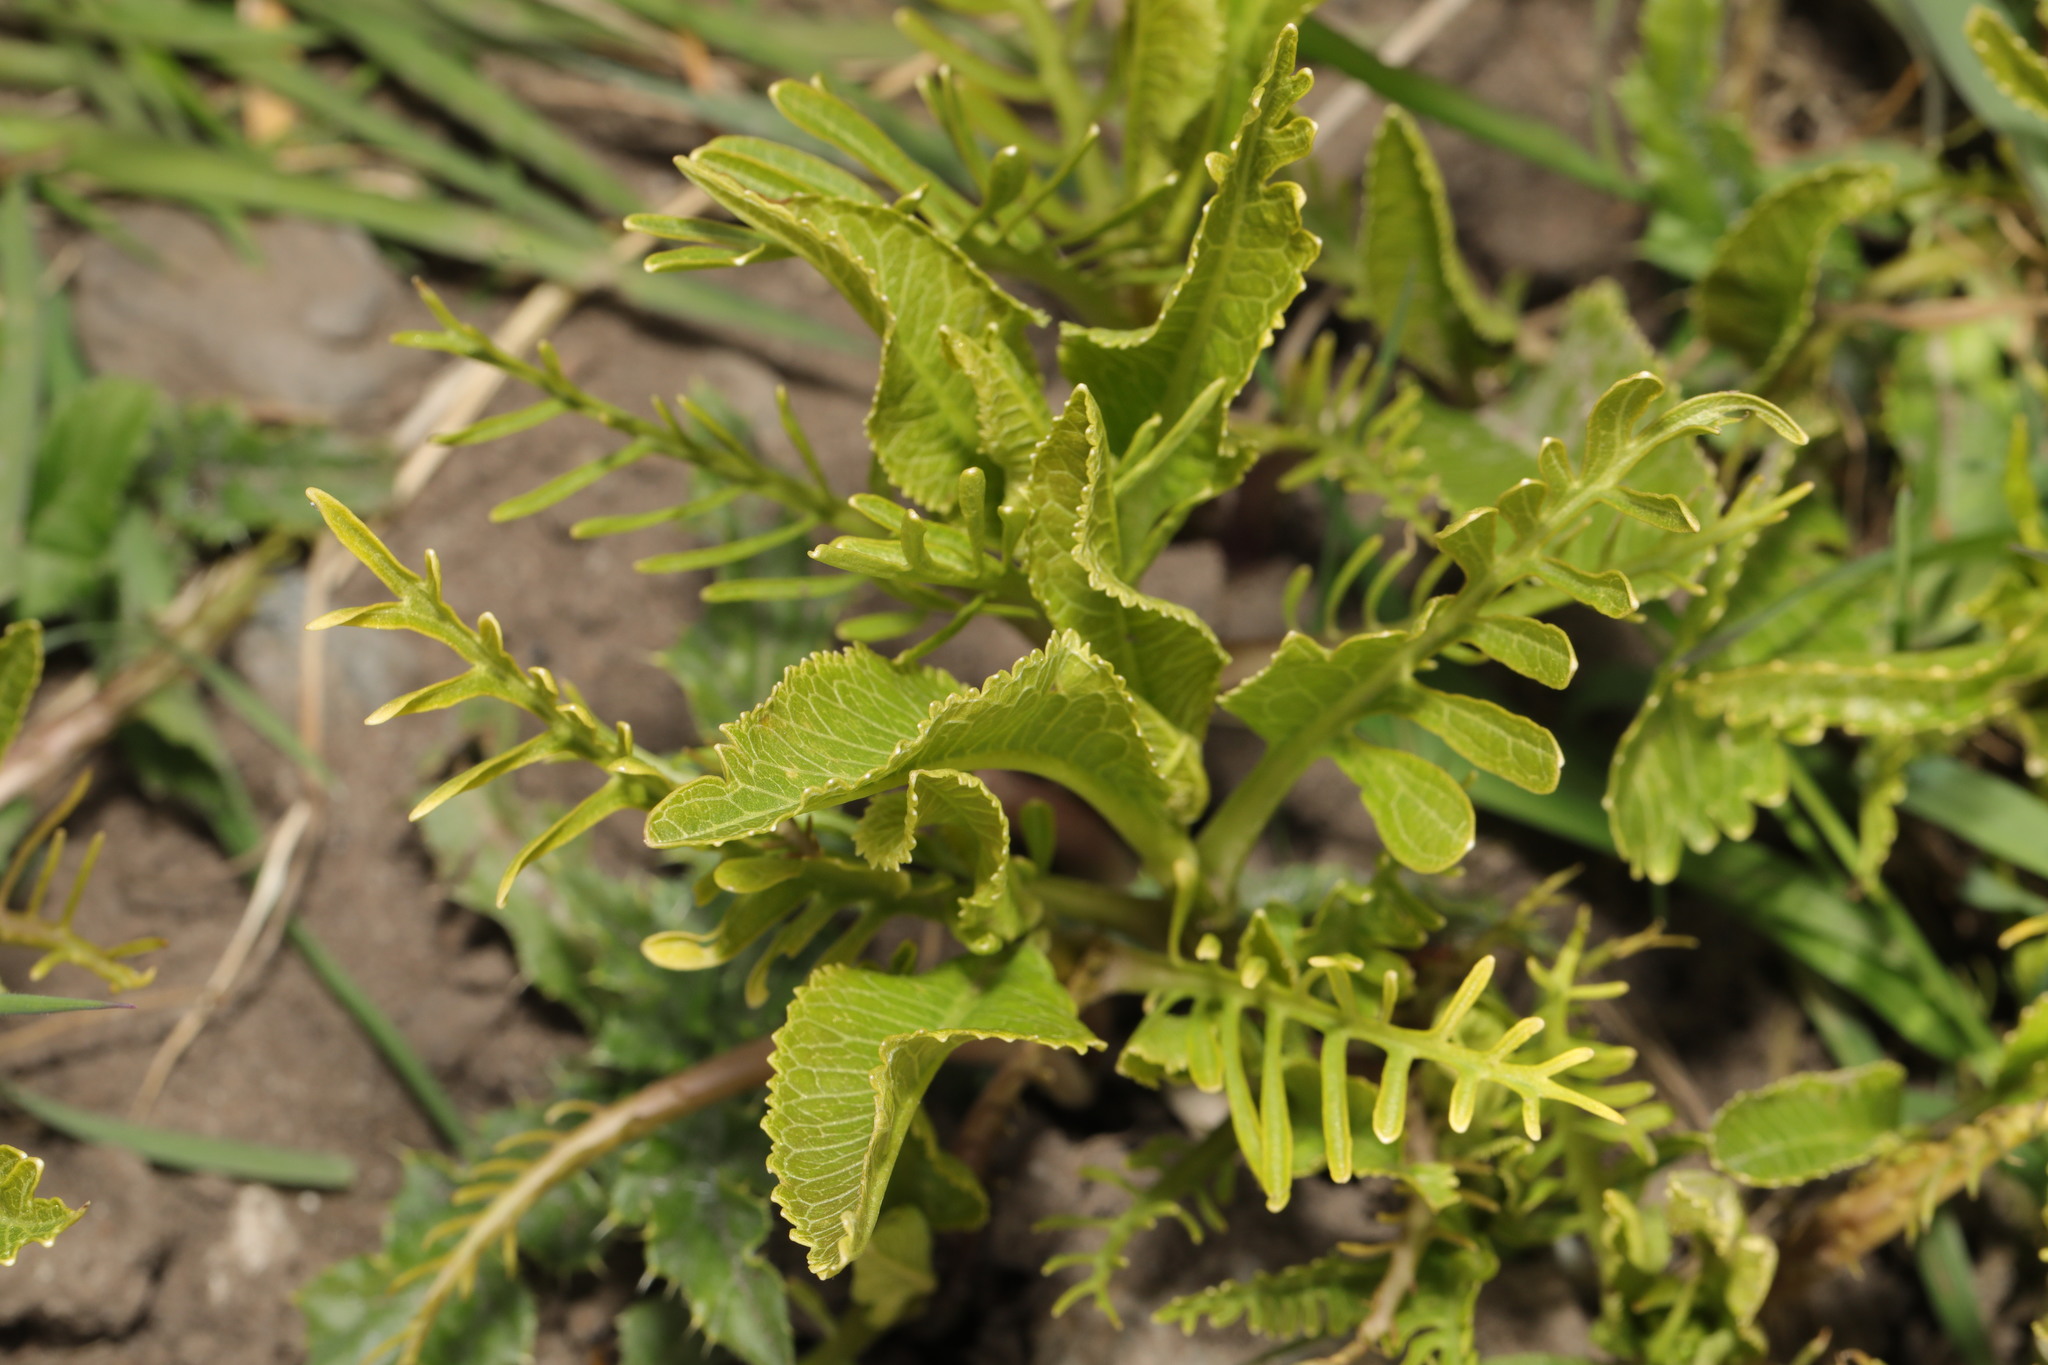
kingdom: Plantae
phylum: Tracheophyta
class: Magnoliopsida
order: Brassicales
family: Brassicaceae
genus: Armoracia
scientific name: Armoracia rusticana
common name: Horseradish
